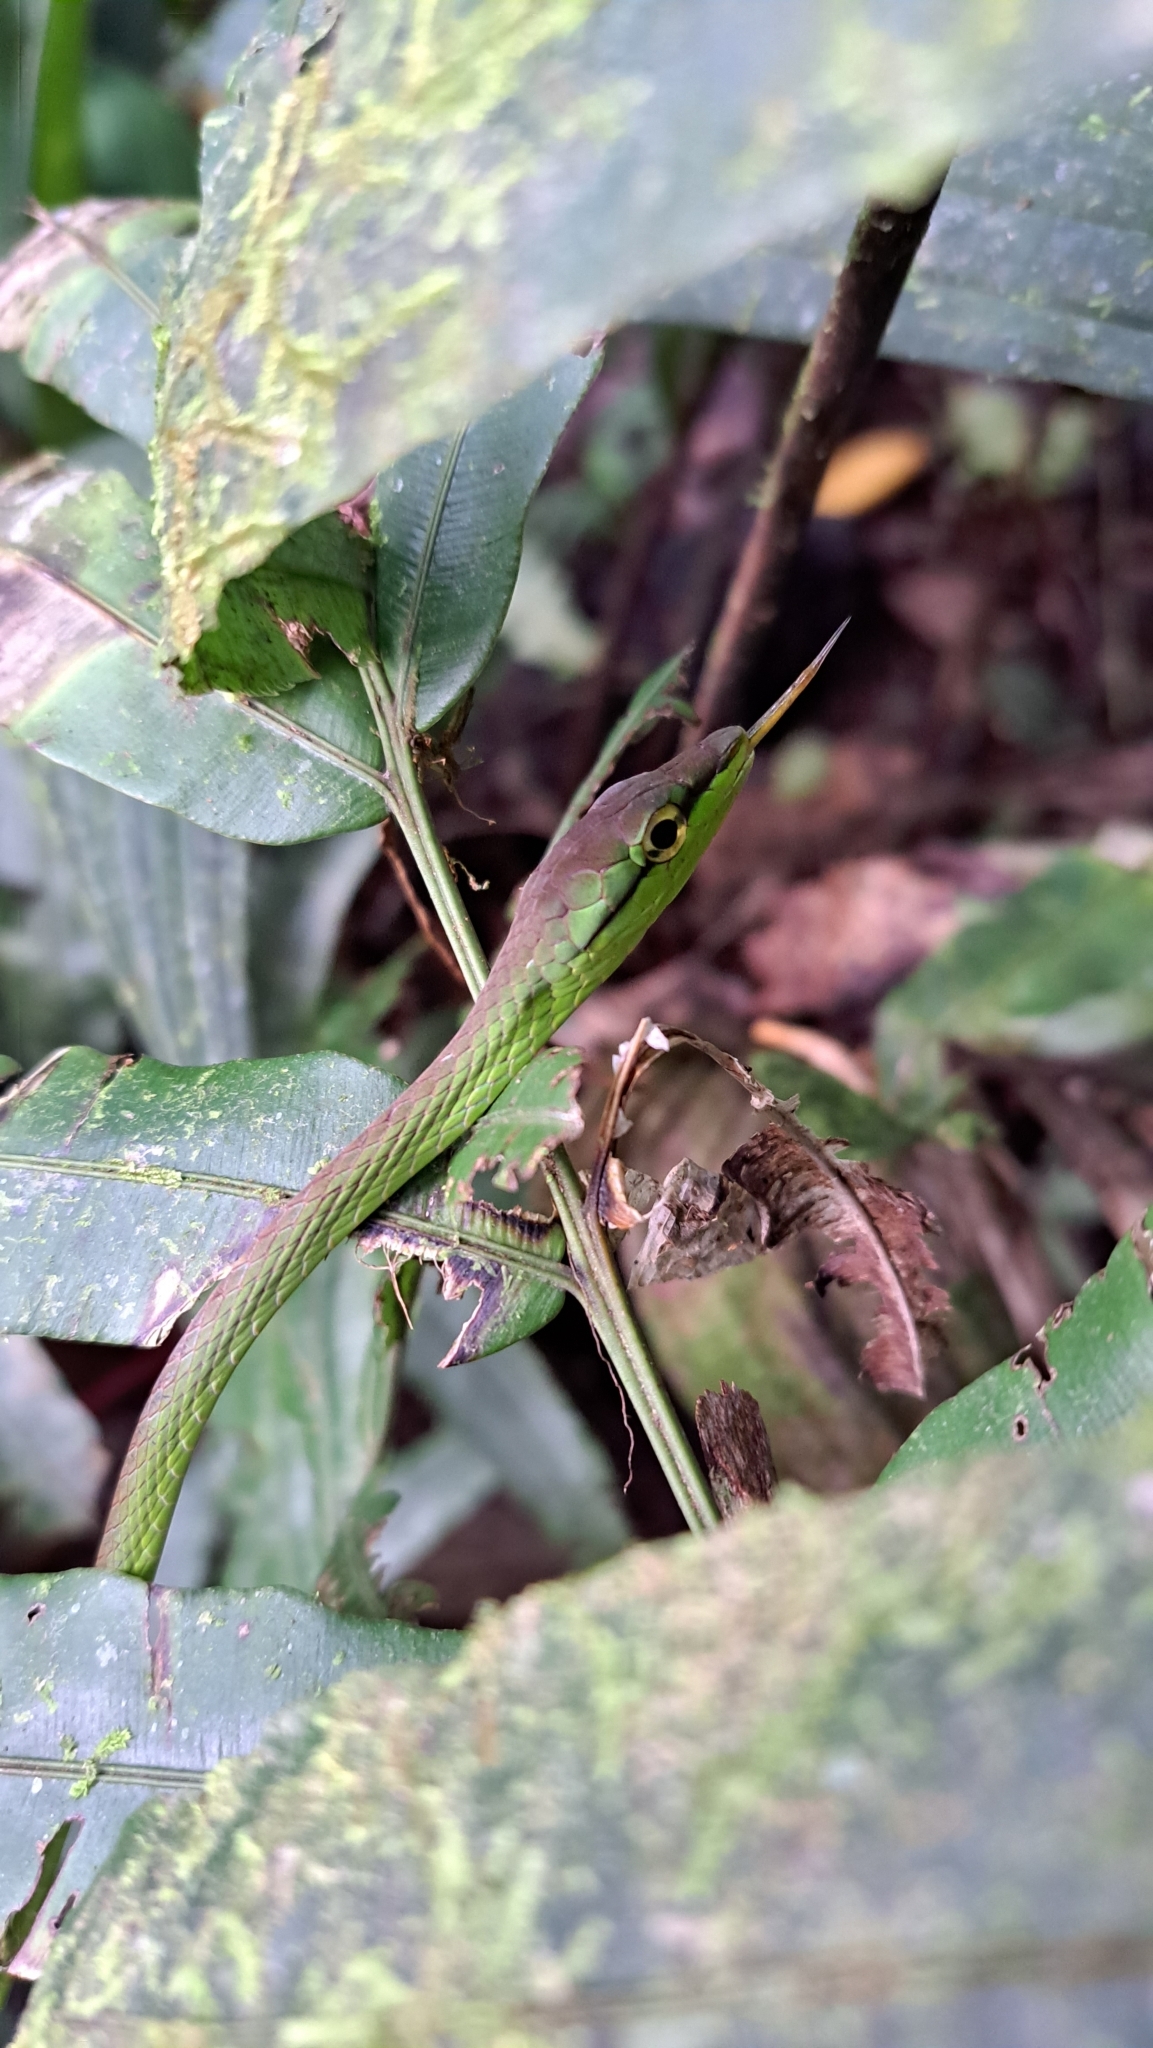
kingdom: Animalia
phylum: Chordata
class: Squamata
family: Colubridae
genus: Oxybelis
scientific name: Oxybelis brevirostris
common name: Cope's vine snake
